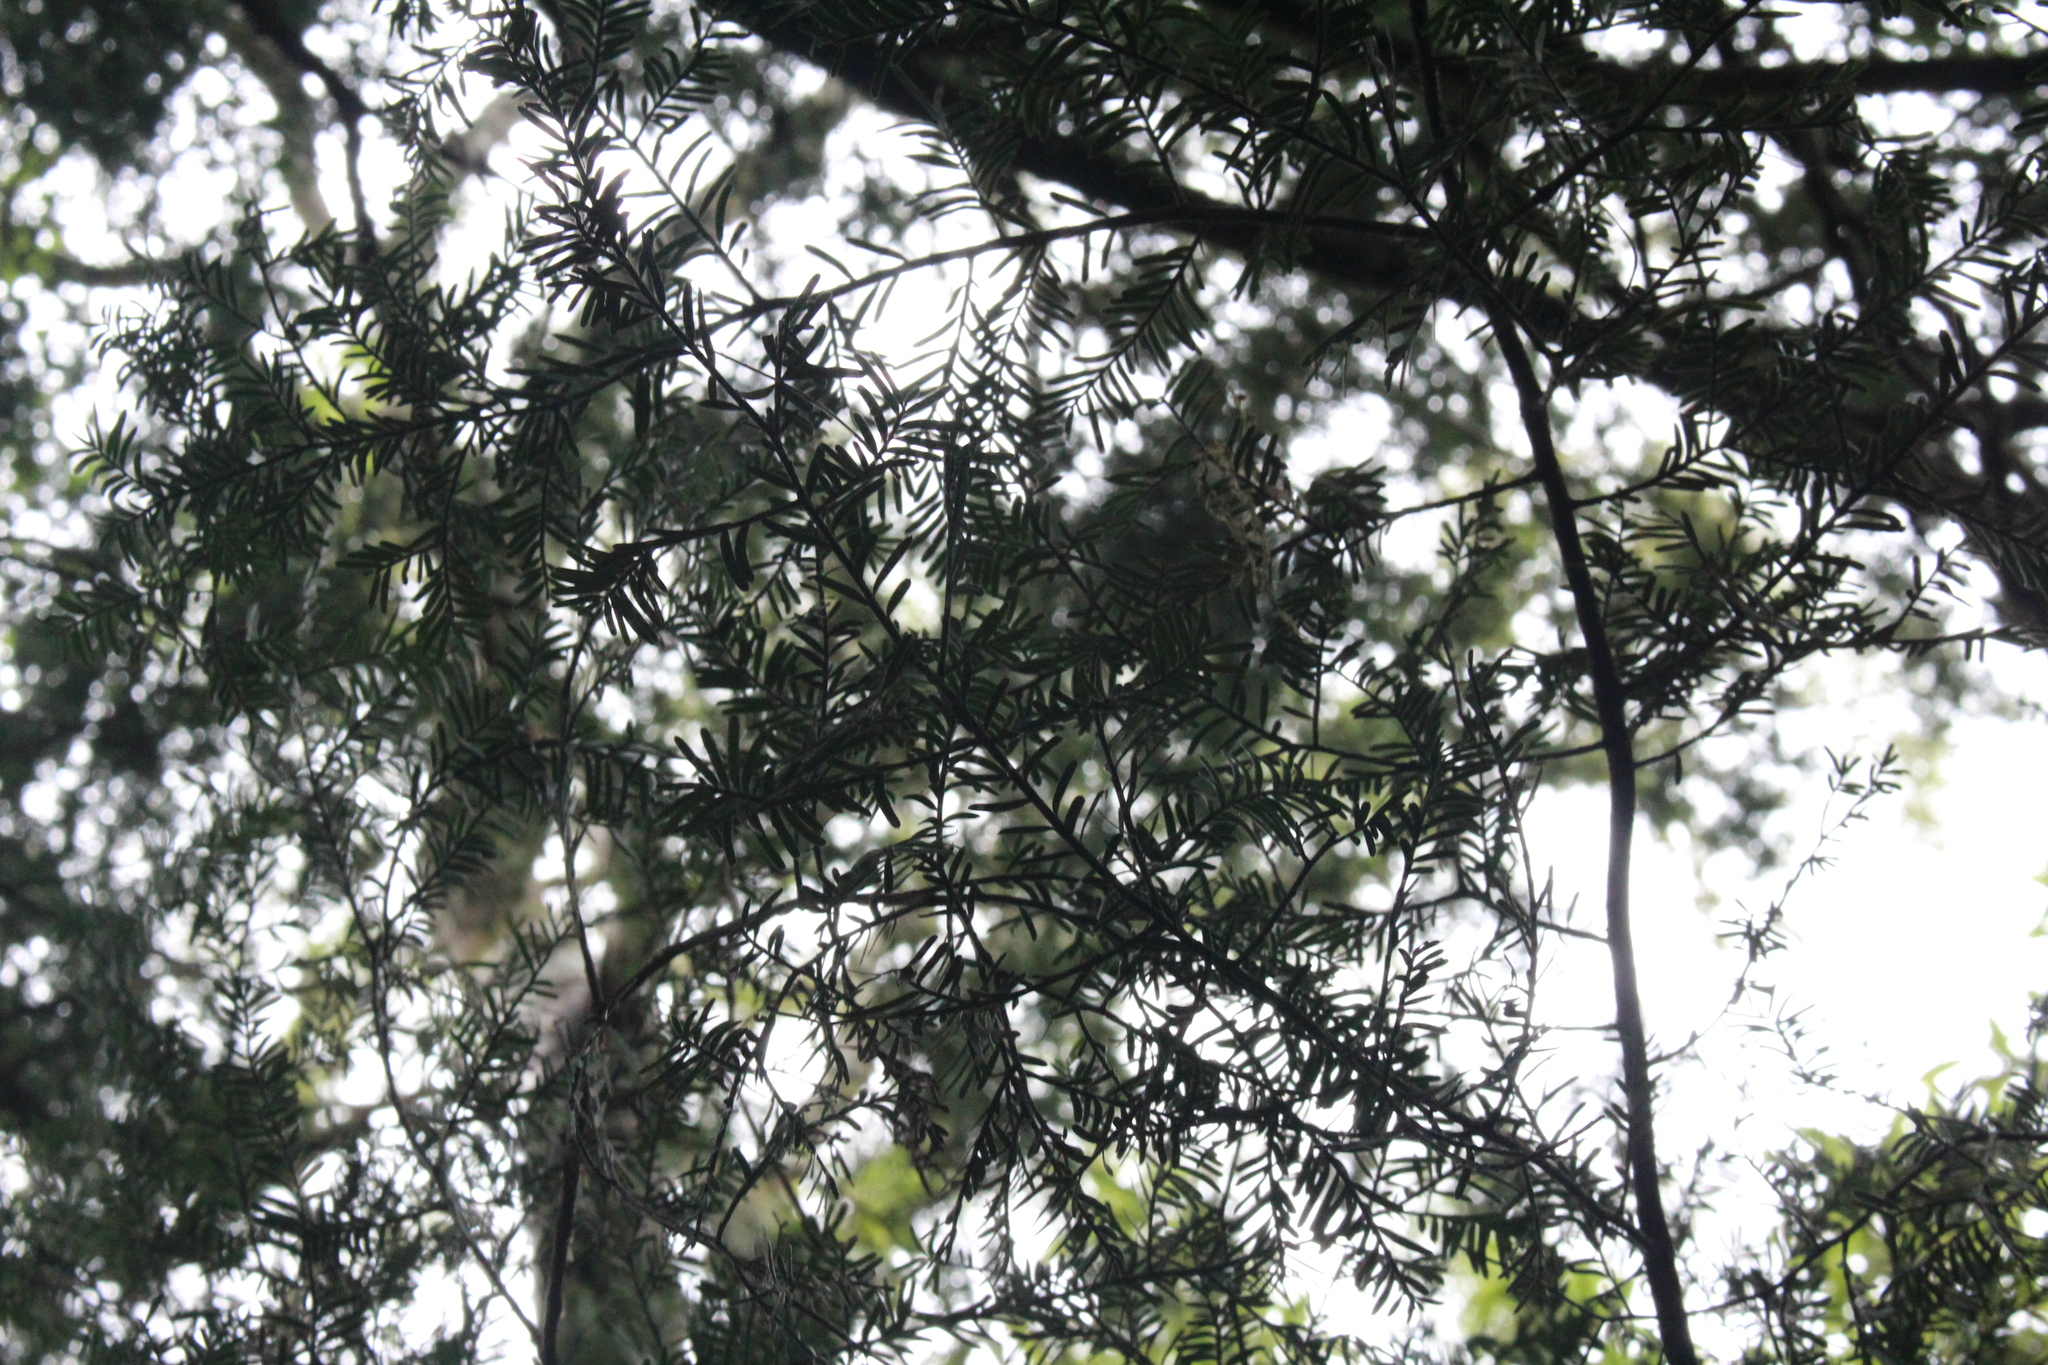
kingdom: Plantae
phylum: Tracheophyta
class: Pinopsida
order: Pinales
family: Podocarpaceae
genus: Prumnopitys
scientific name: Prumnopitys taxifolia
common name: Matai
